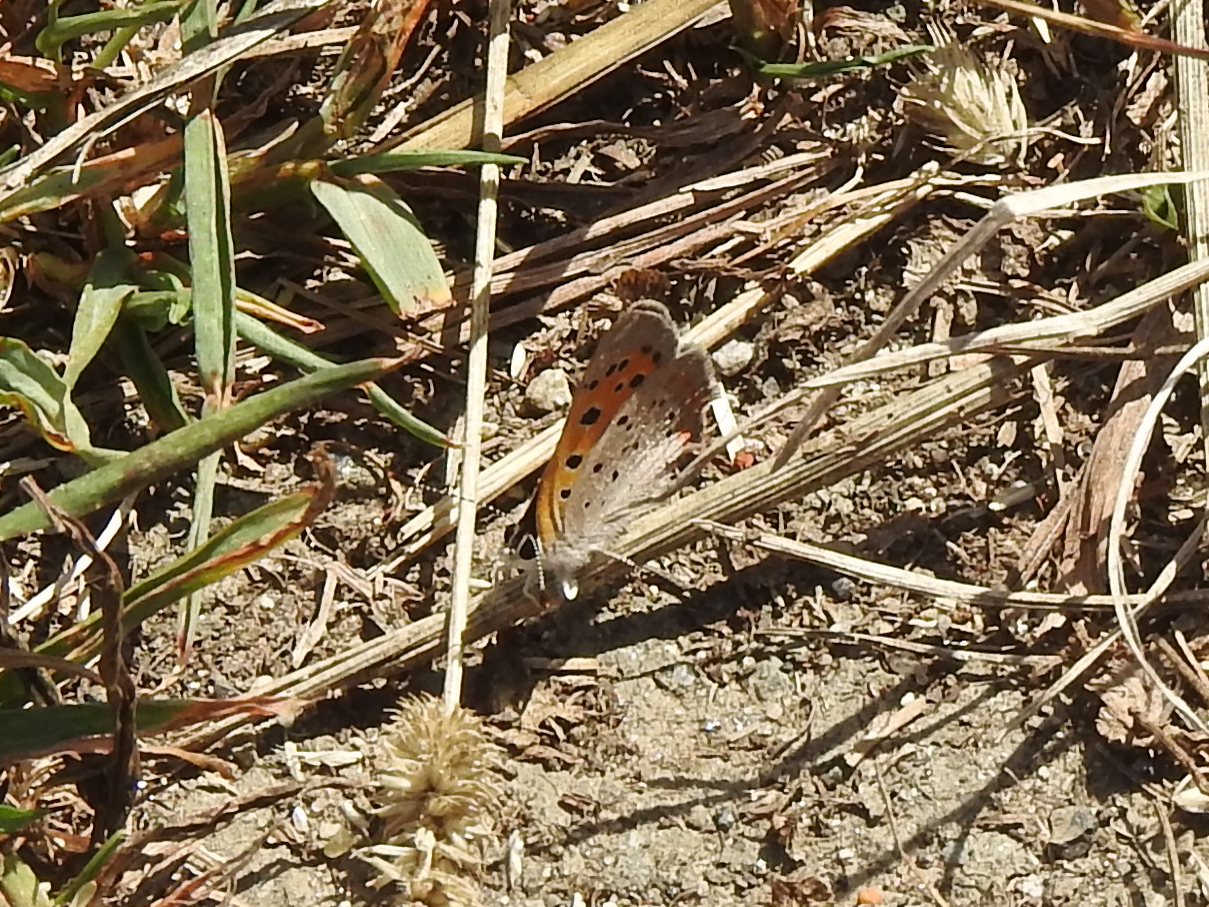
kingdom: Animalia
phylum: Arthropoda
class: Insecta
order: Lepidoptera
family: Lycaenidae
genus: Lycaena
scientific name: Lycaena hypophlaeas
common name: American copper
